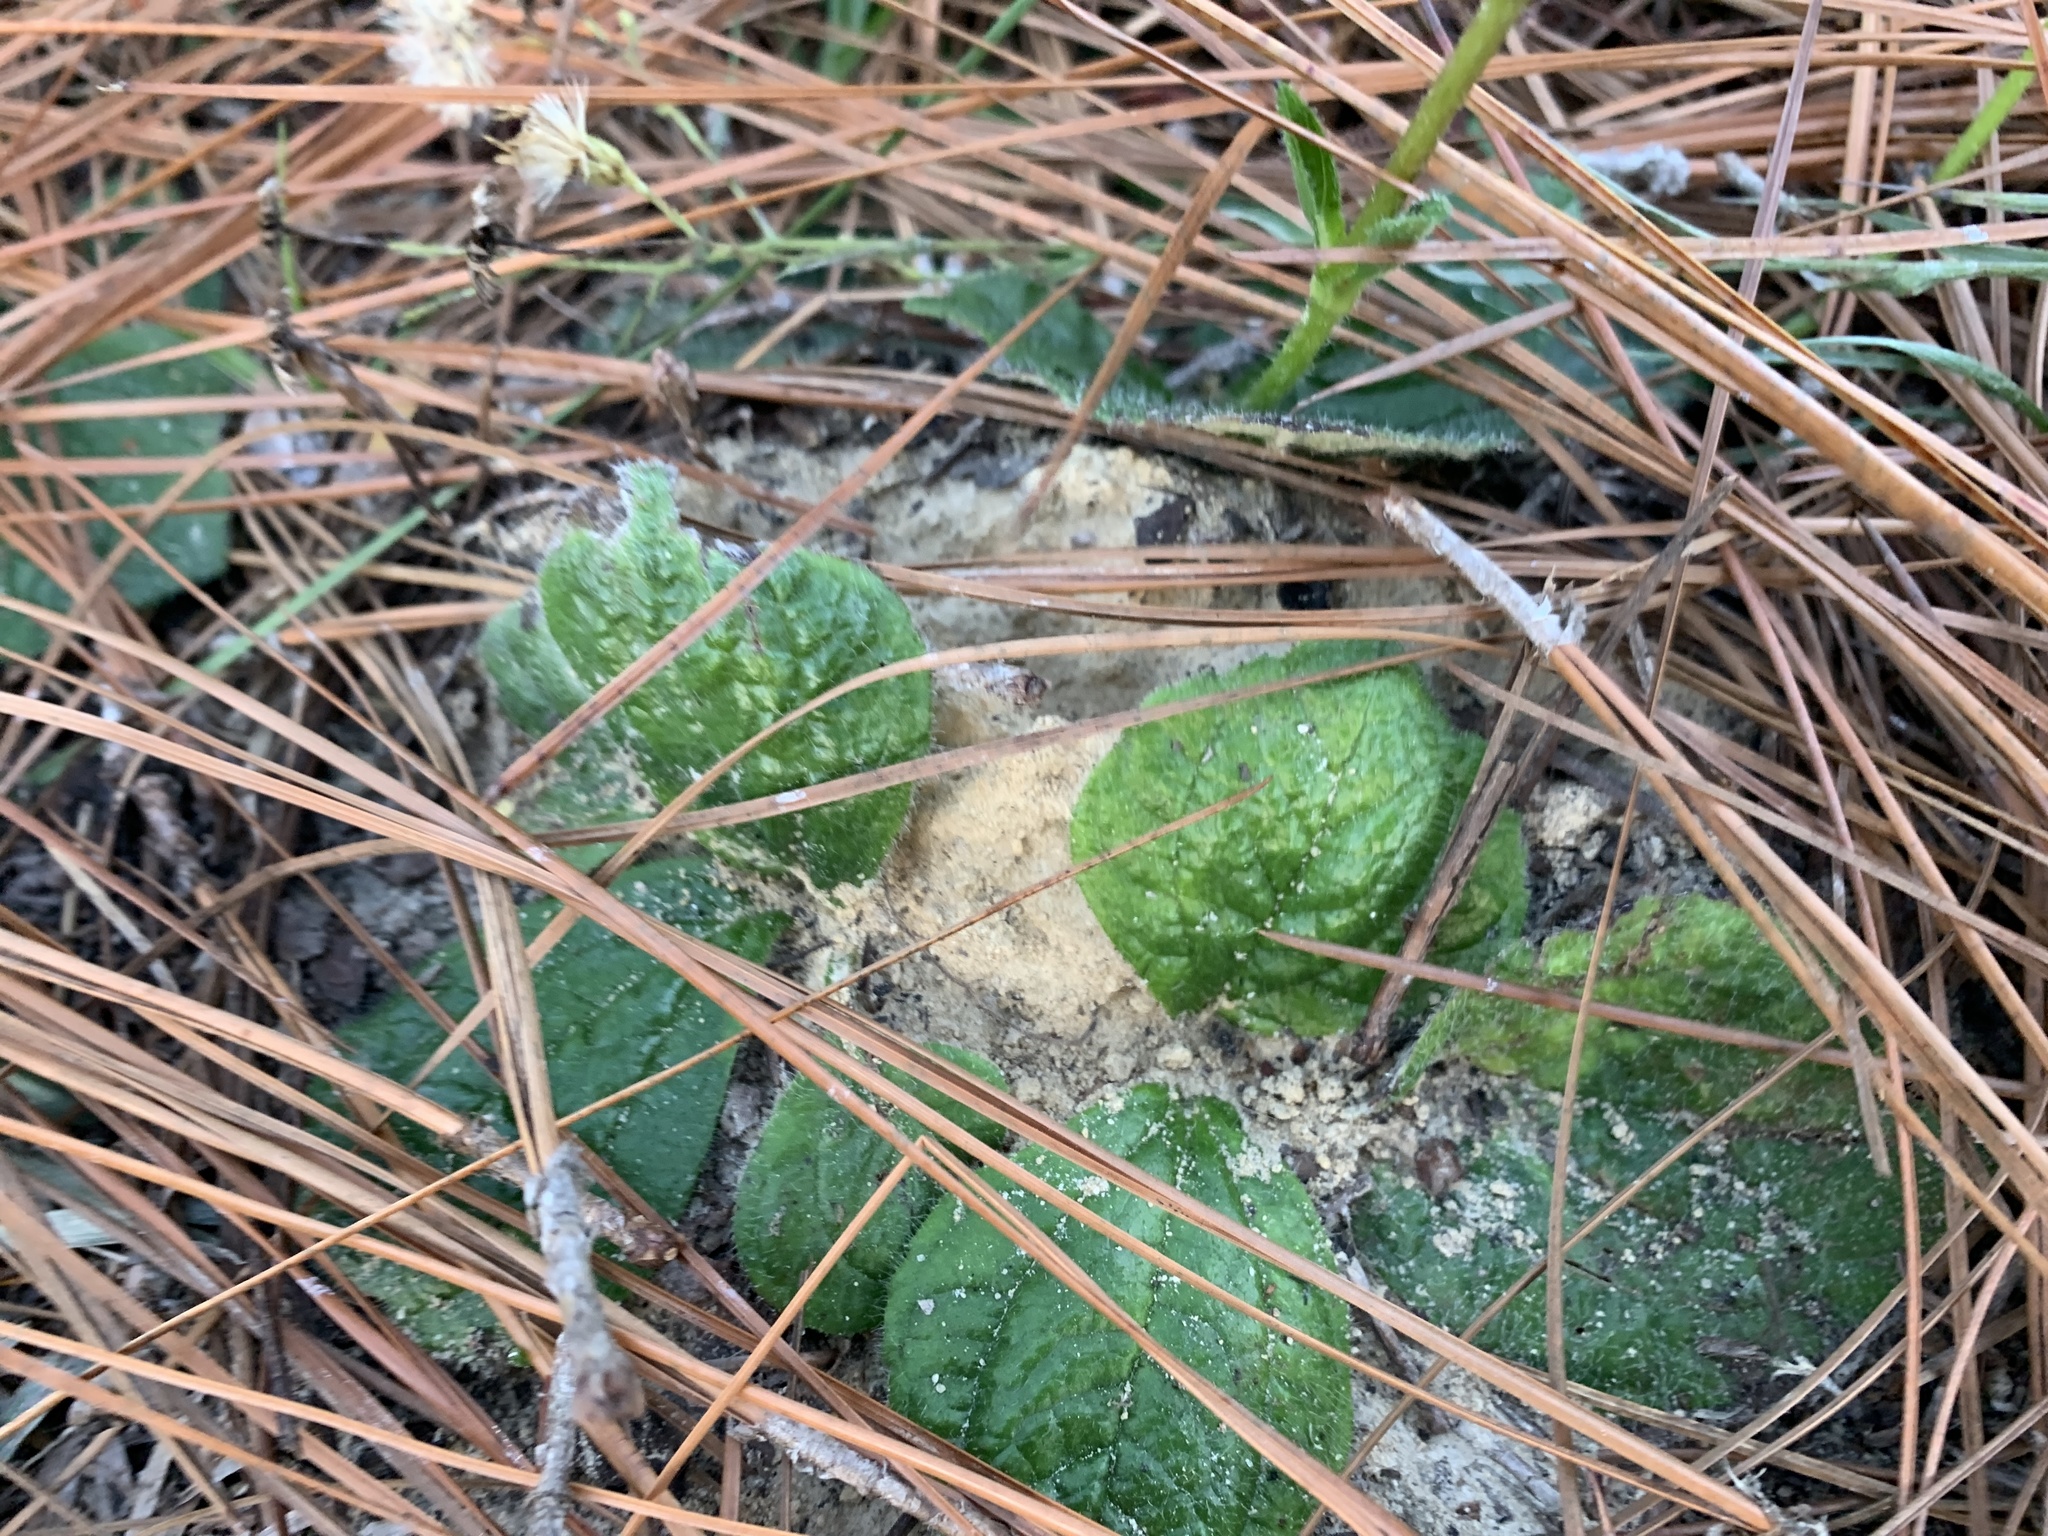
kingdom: Plantae
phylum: Tracheophyta
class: Magnoliopsida
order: Asterales
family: Asteraceae
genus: Helianthus
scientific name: Helianthus radula
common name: Pineland sunflower
